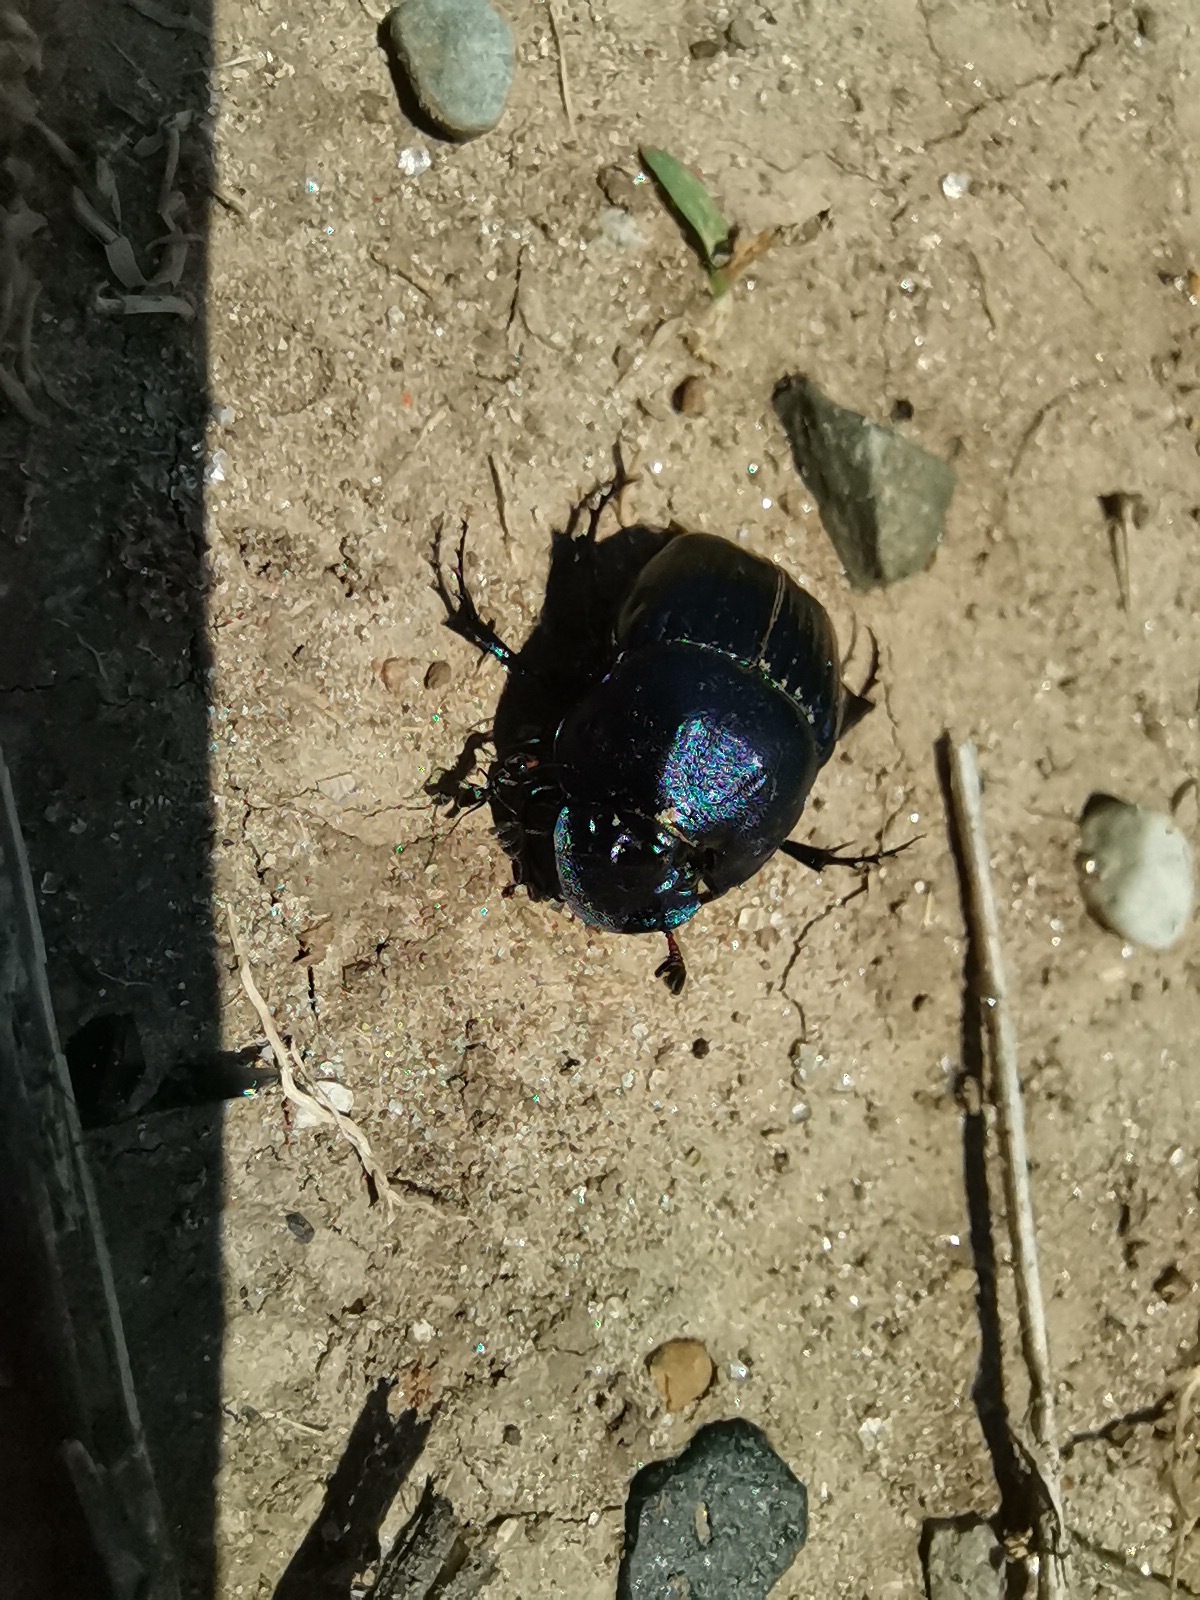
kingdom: Animalia
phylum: Arthropoda
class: Insecta
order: Coleoptera
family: Scarabaeidae
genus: Phanaeus
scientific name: Phanaeus adonis
